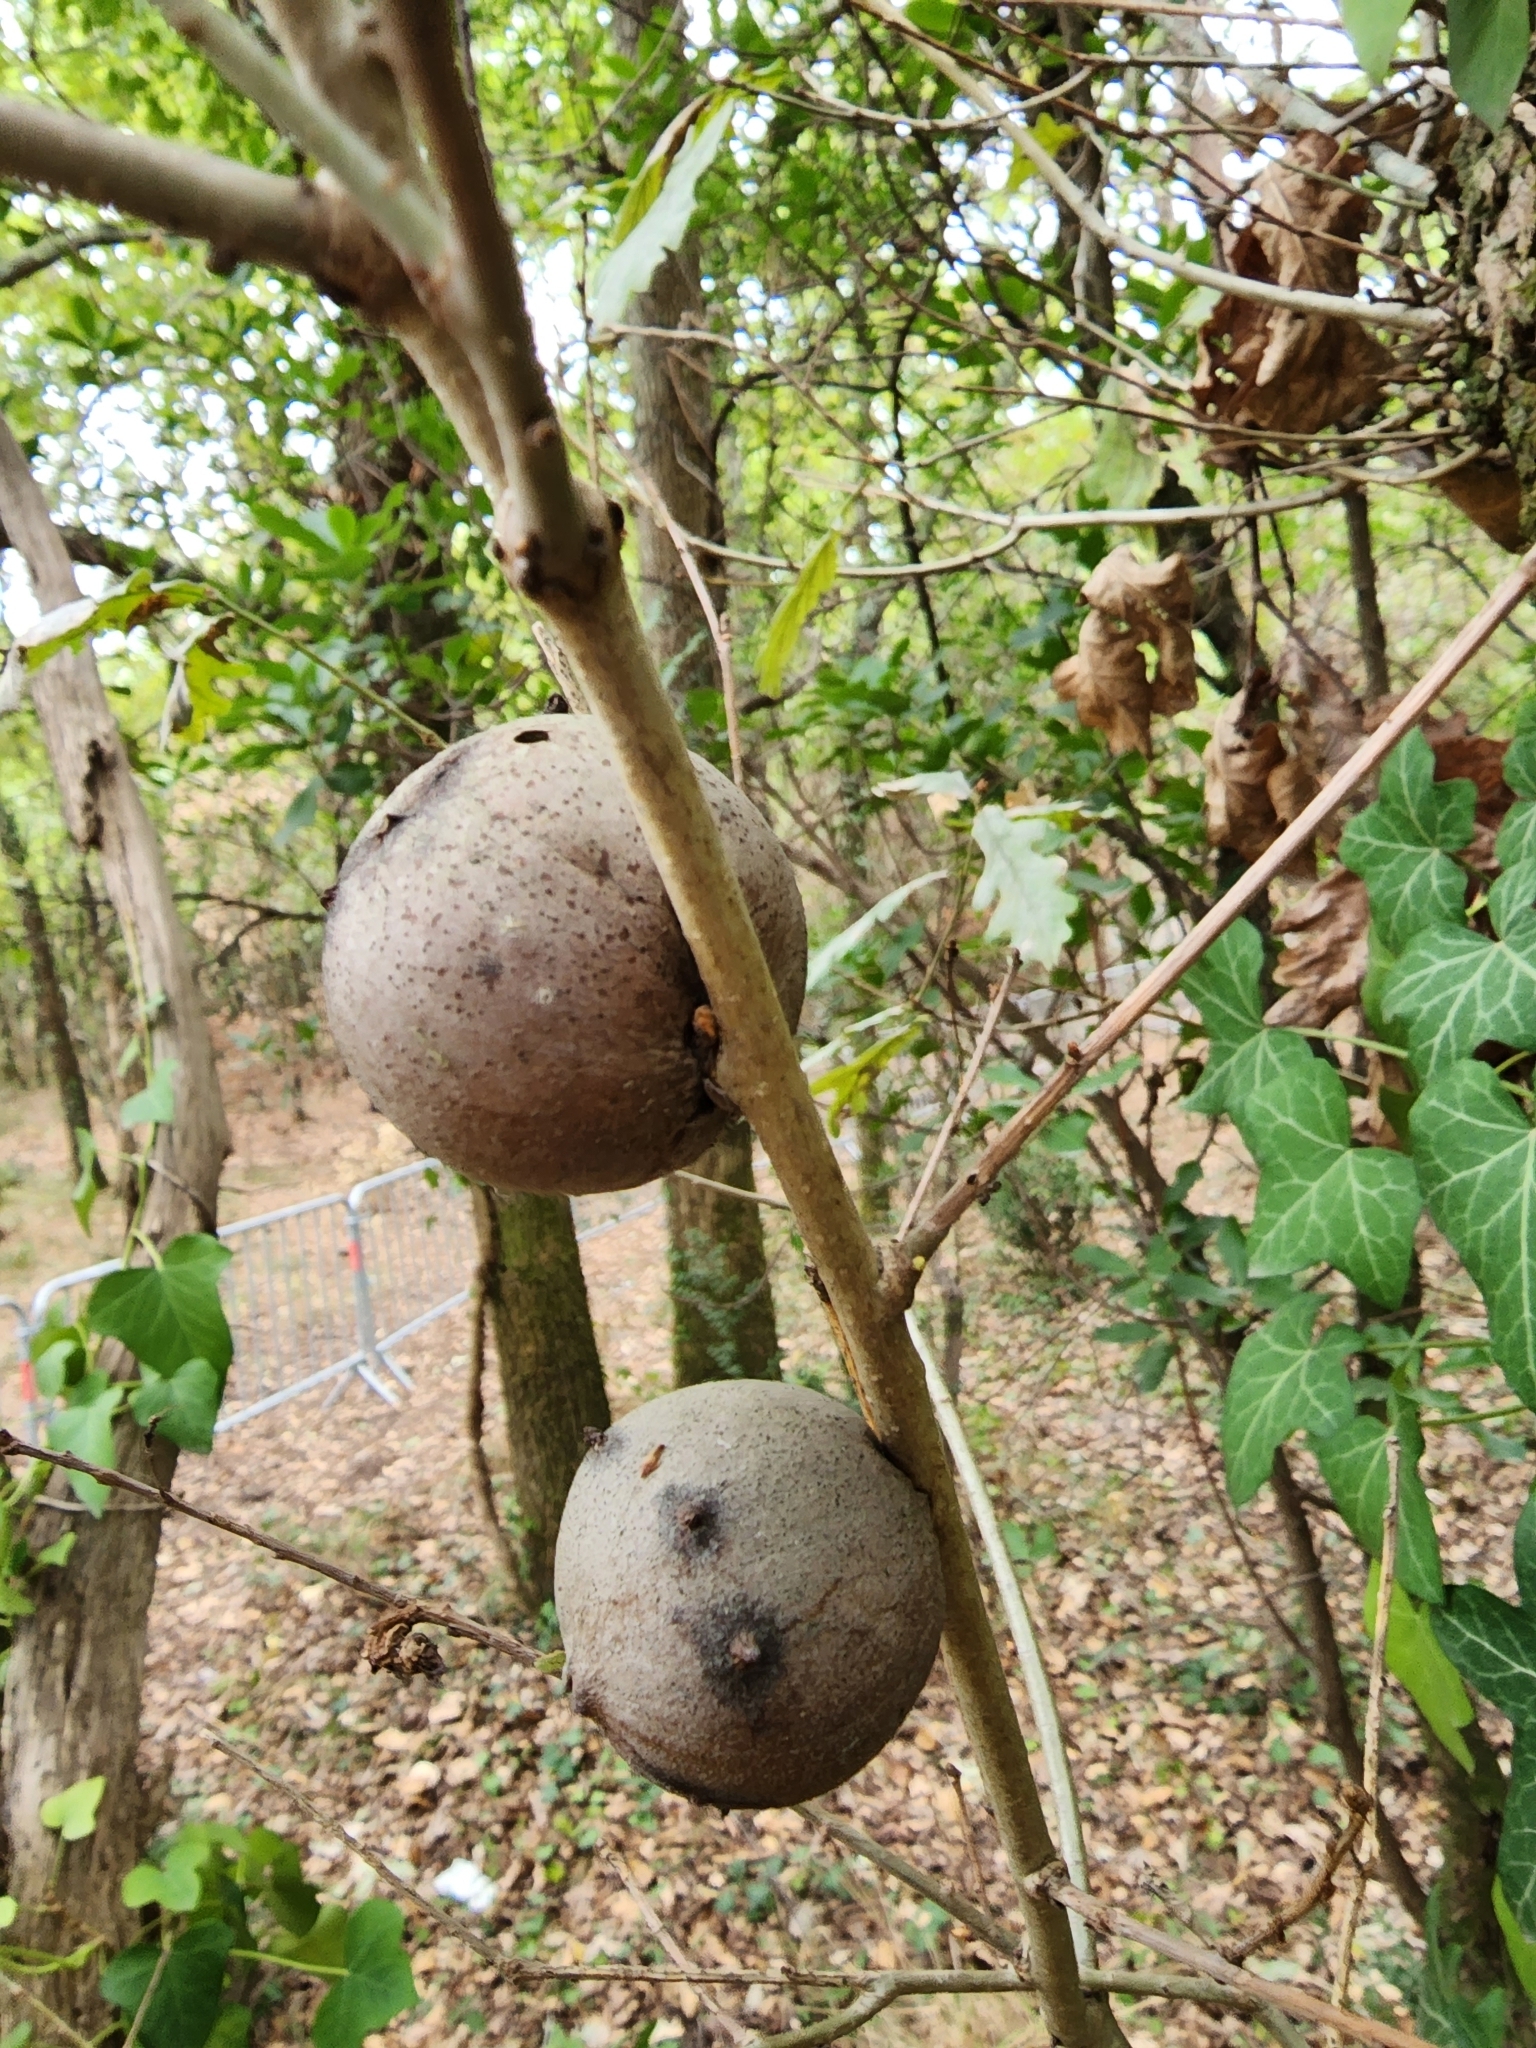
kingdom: Animalia
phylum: Arthropoda
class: Insecta
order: Hymenoptera
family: Cynipidae
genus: Andricus
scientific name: Andricus quercustozae
